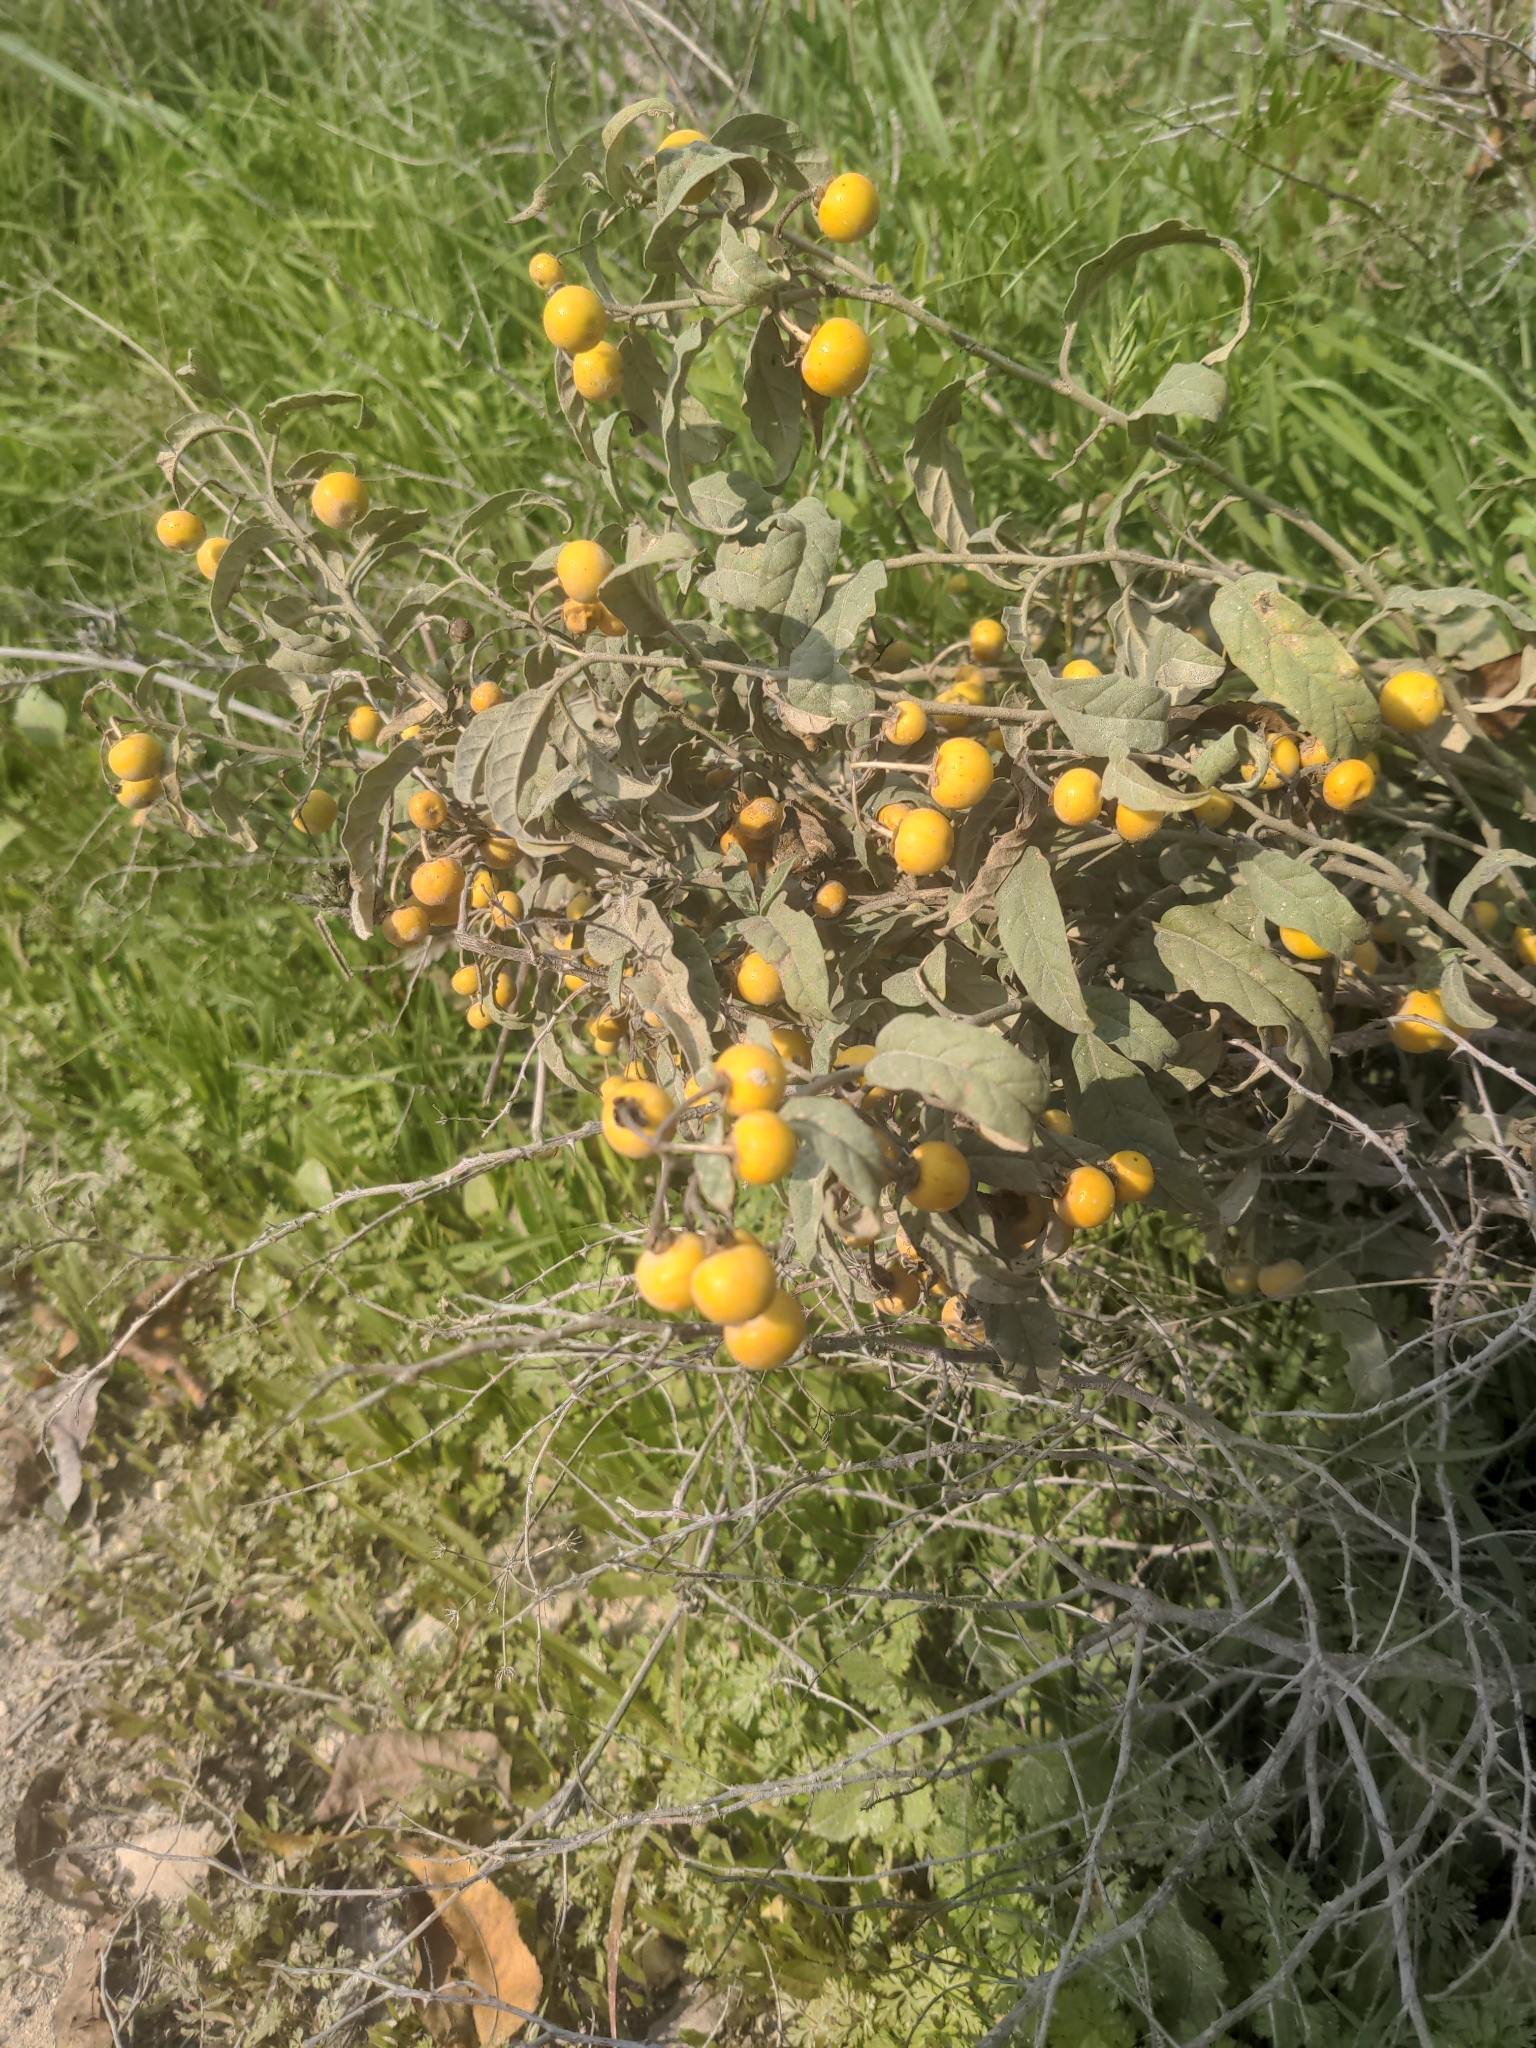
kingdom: Plantae
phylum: Tracheophyta
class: Magnoliopsida
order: Solanales
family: Solanaceae
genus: Solanum
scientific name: Solanum elaeagnifolium
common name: Silverleaf nightshade
